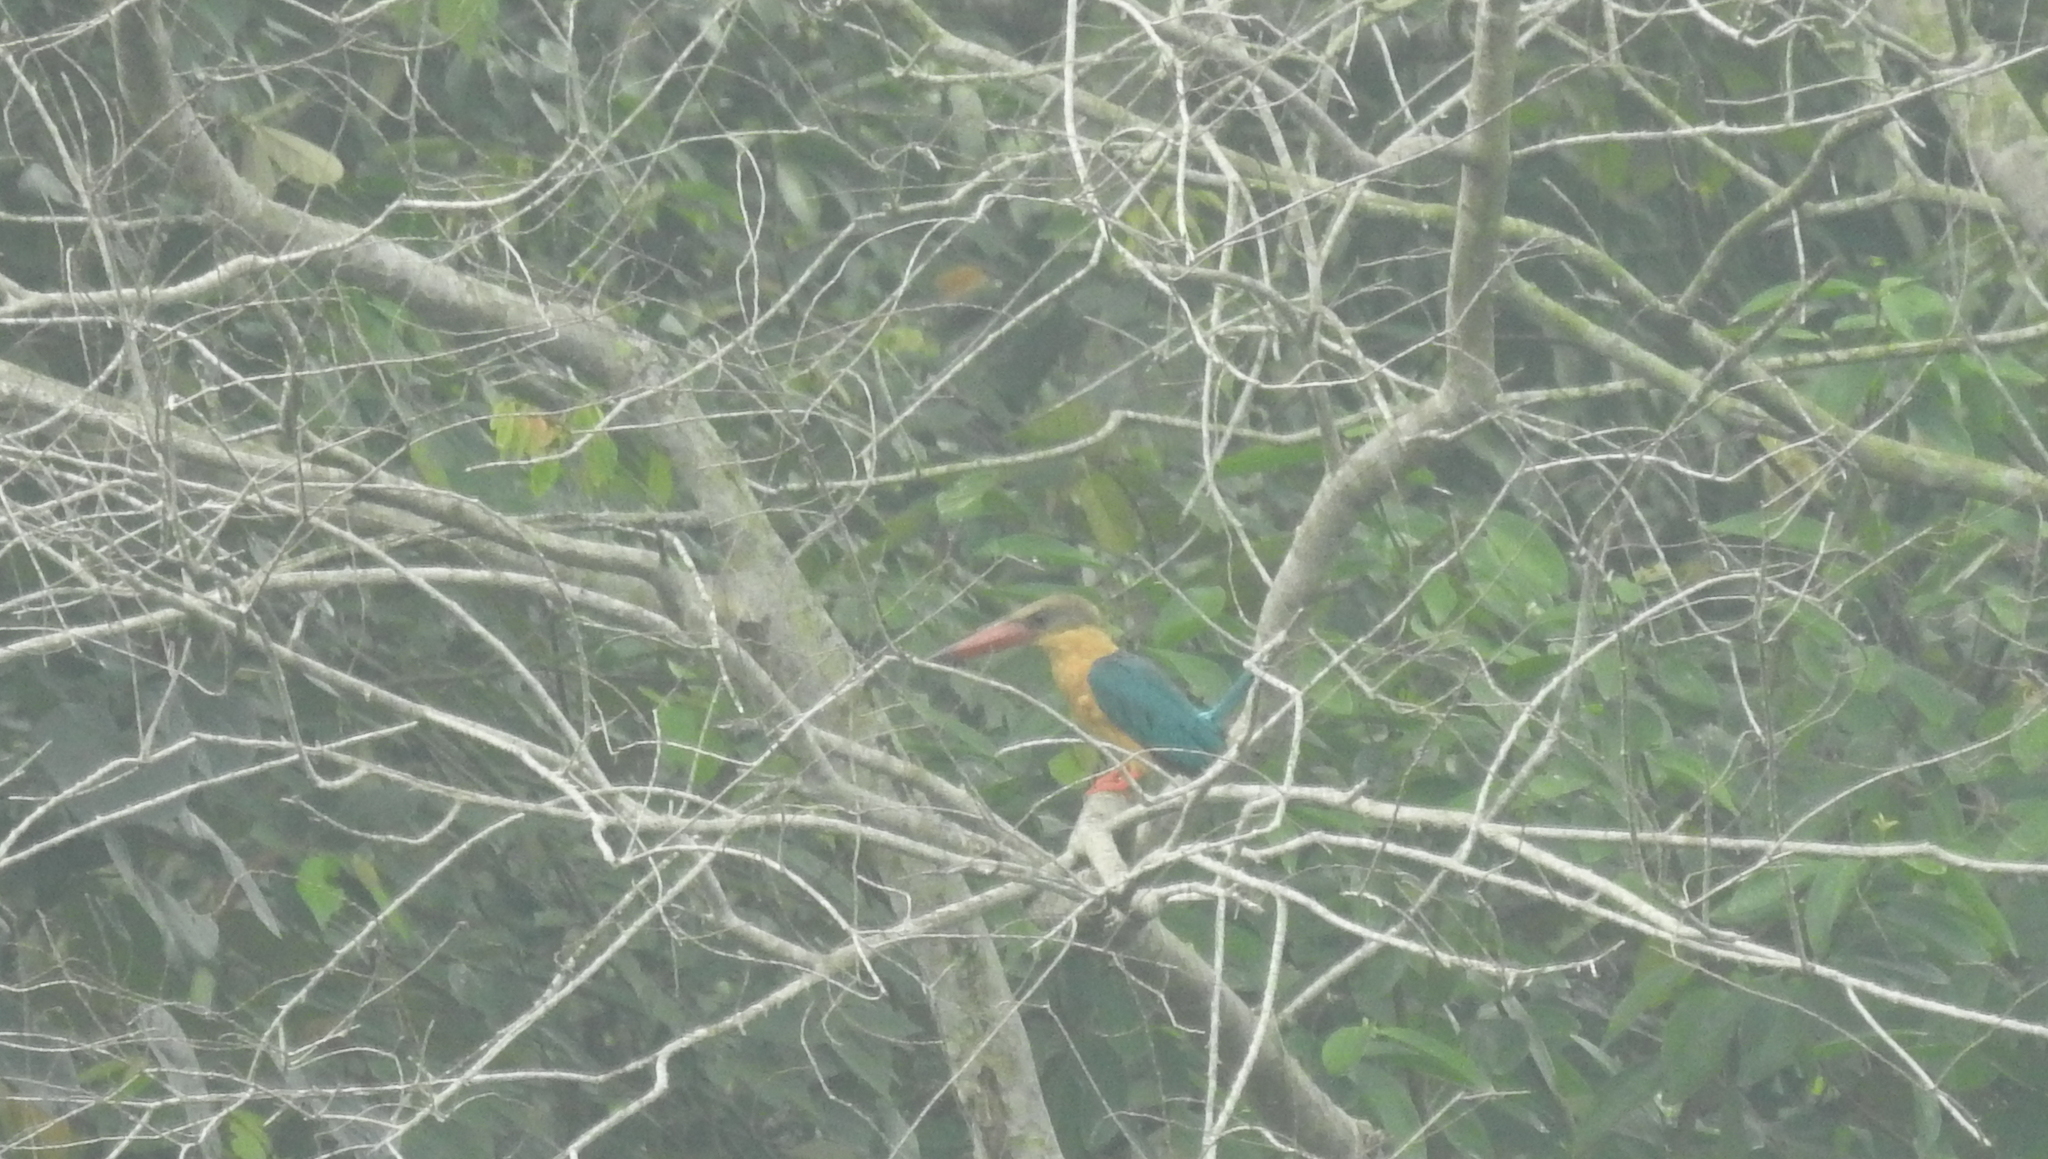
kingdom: Animalia
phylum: Chordata
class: Aves
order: Coraciiformes
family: Alcedinidae
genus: Pelargopsis
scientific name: Pelargopsis capensis
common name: Stork-billed kingfisher
